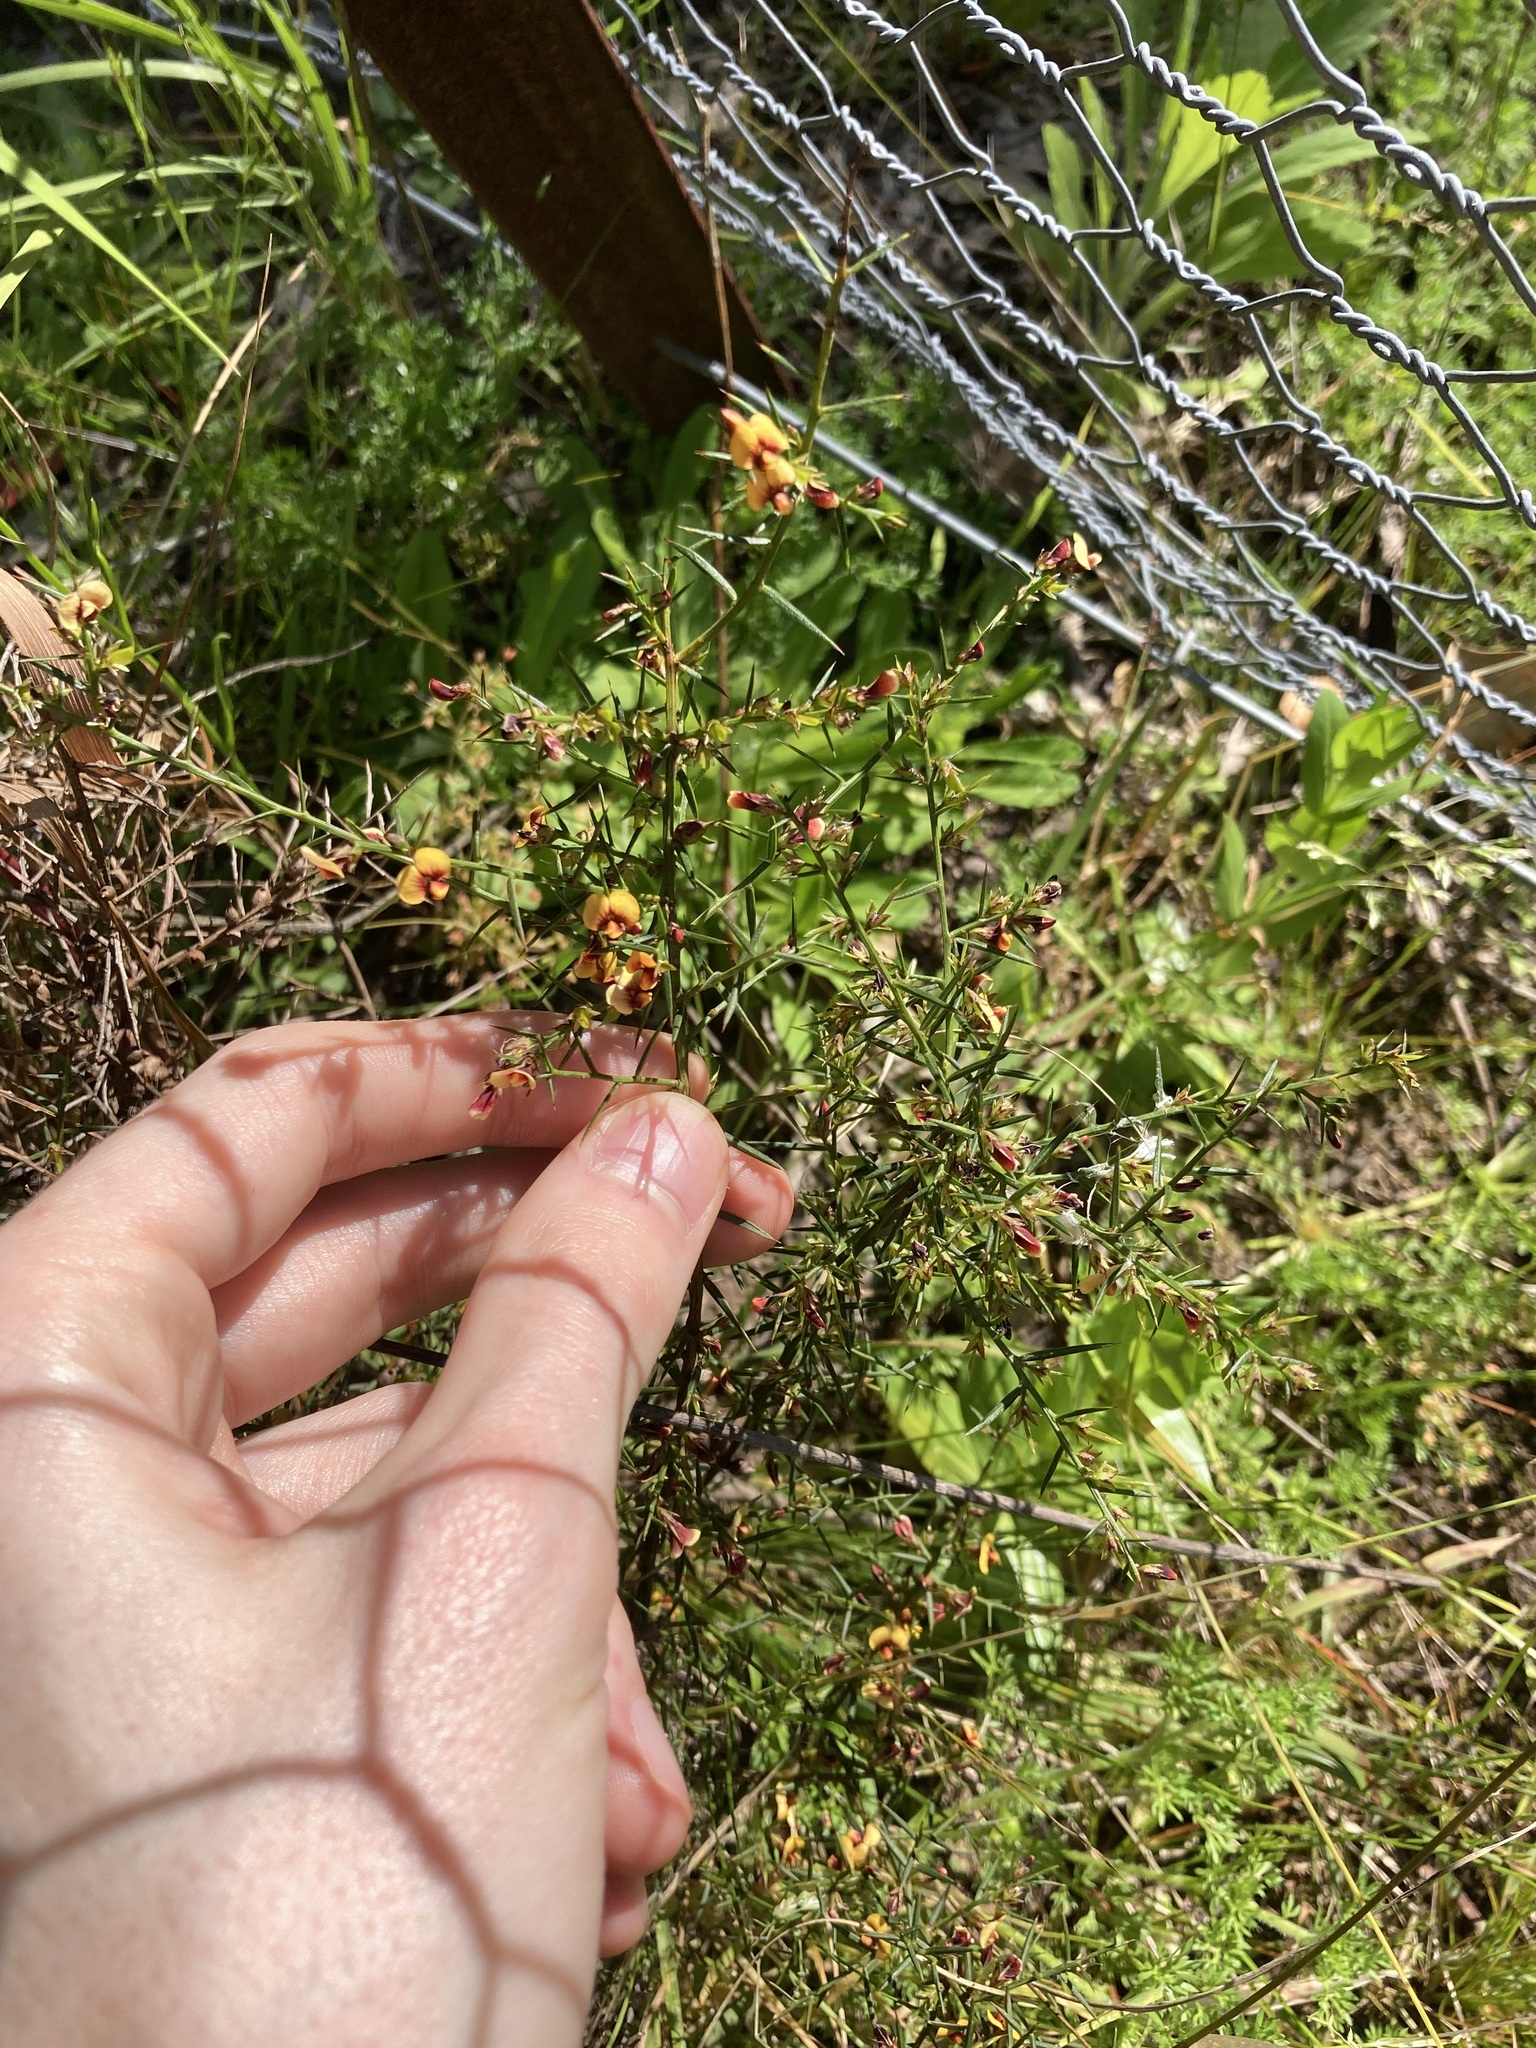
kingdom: Plantae
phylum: Tracheophyta
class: Magnoliopsida
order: Fabales
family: Fabaceae
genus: Daviesia
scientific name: Daviesia ulicifolia
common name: Gorse bitter-pea
